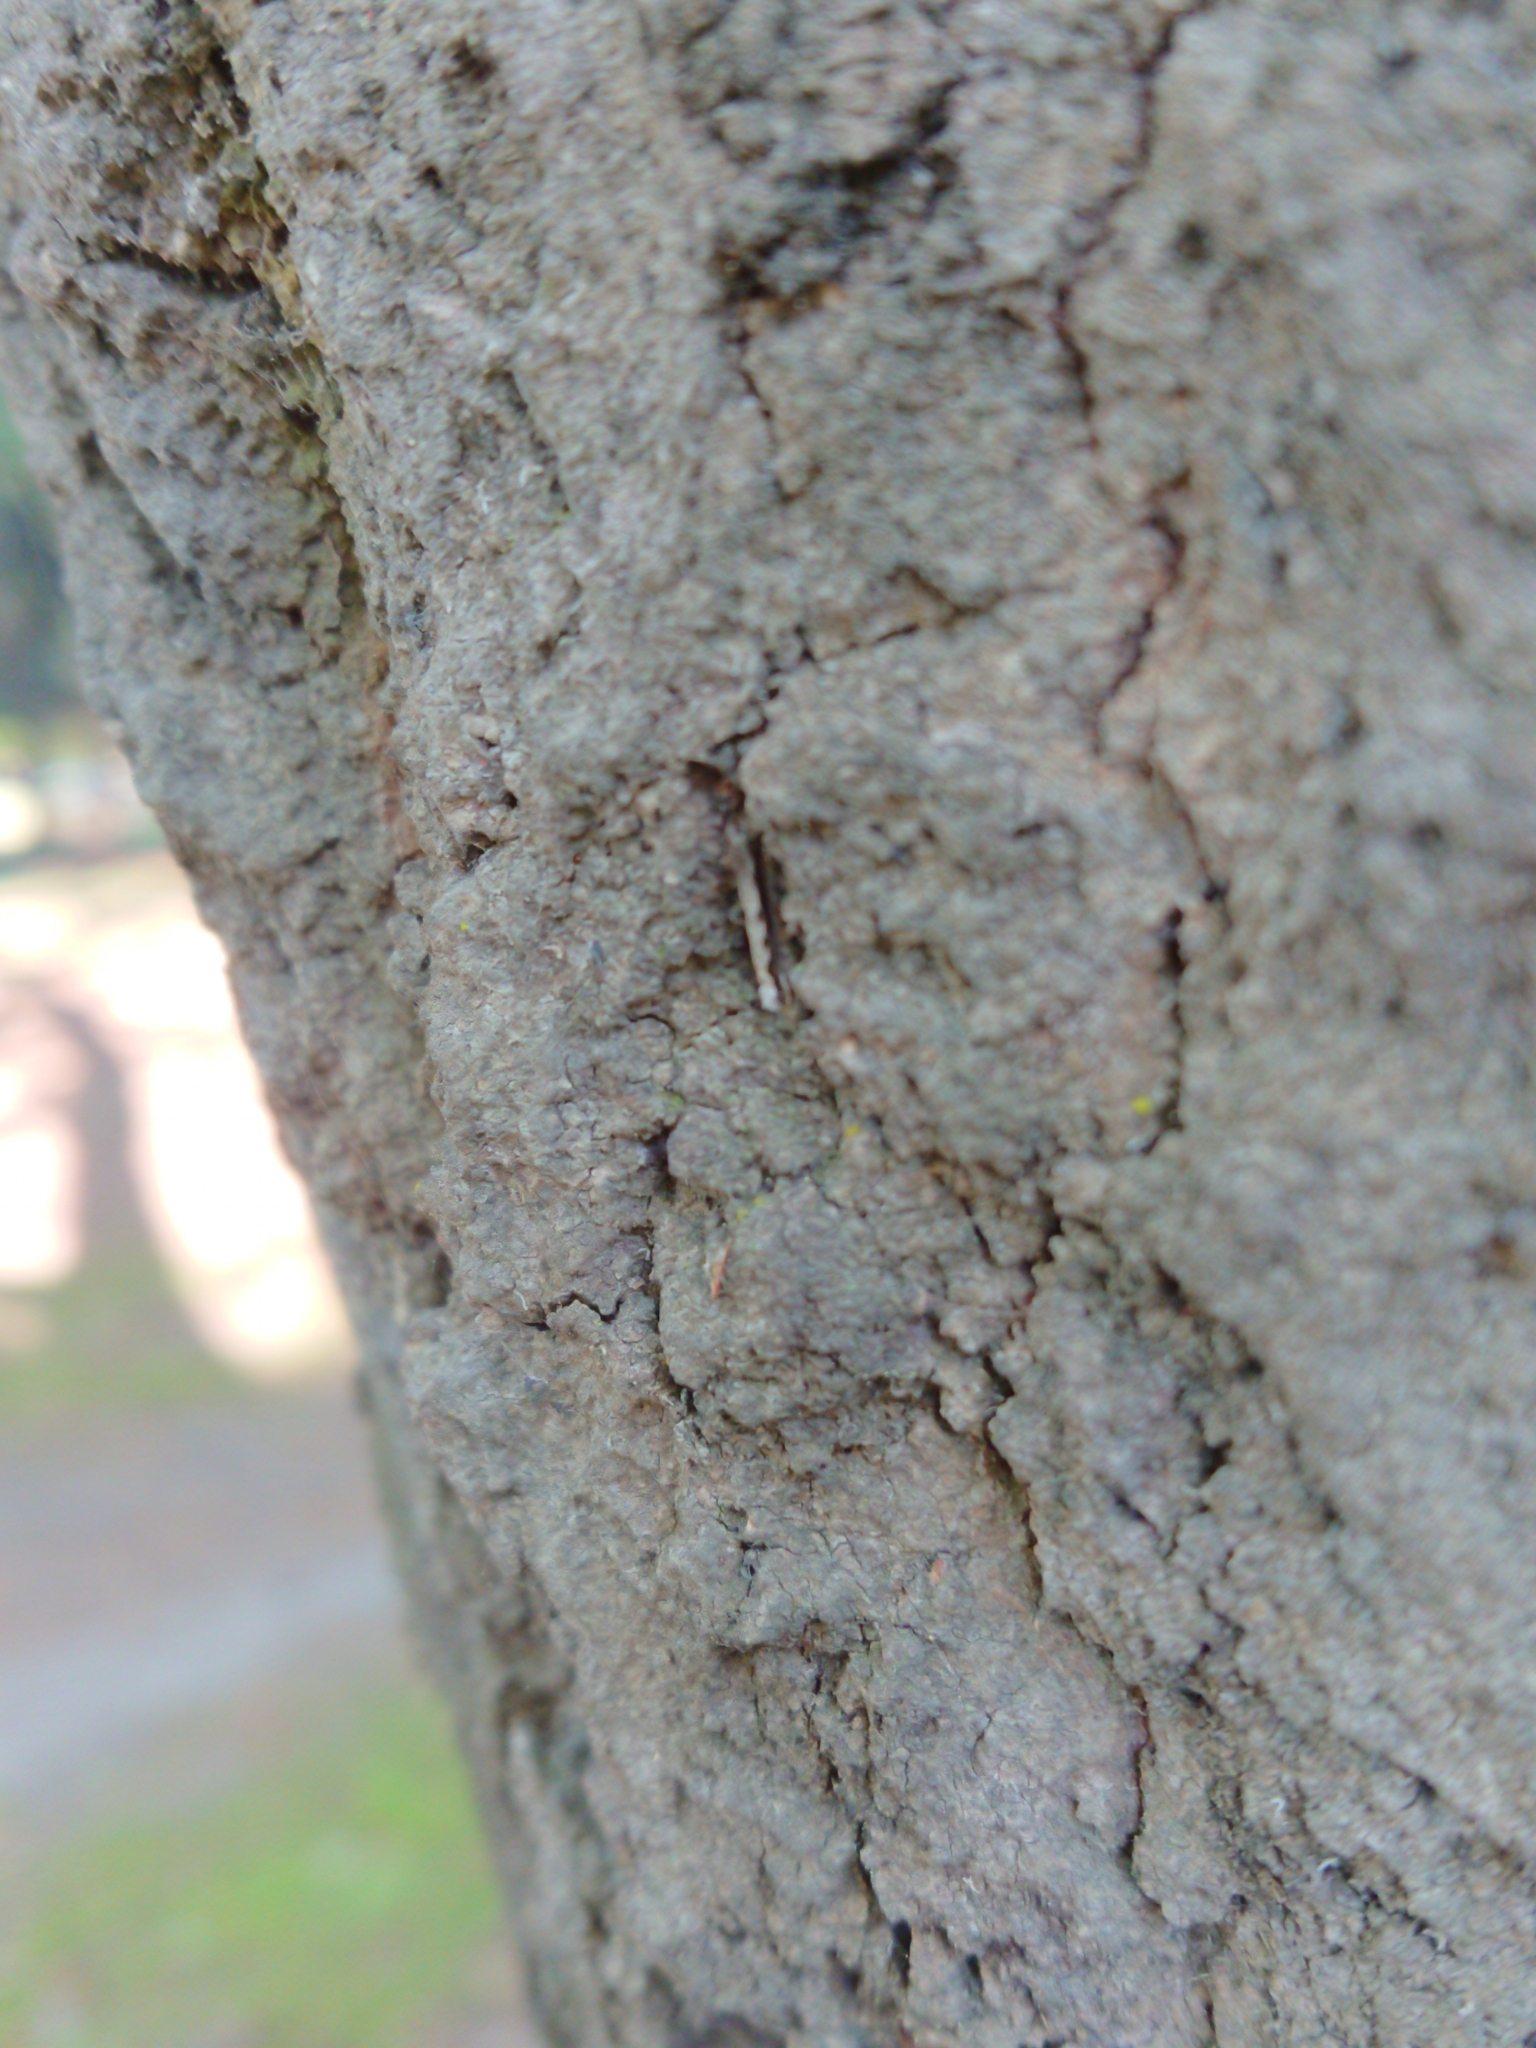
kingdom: Animalia
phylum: Arthropoda
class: Insecta
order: Lepidoptera
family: Tineidae
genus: Erechthias
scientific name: Erechthias fulguritella
